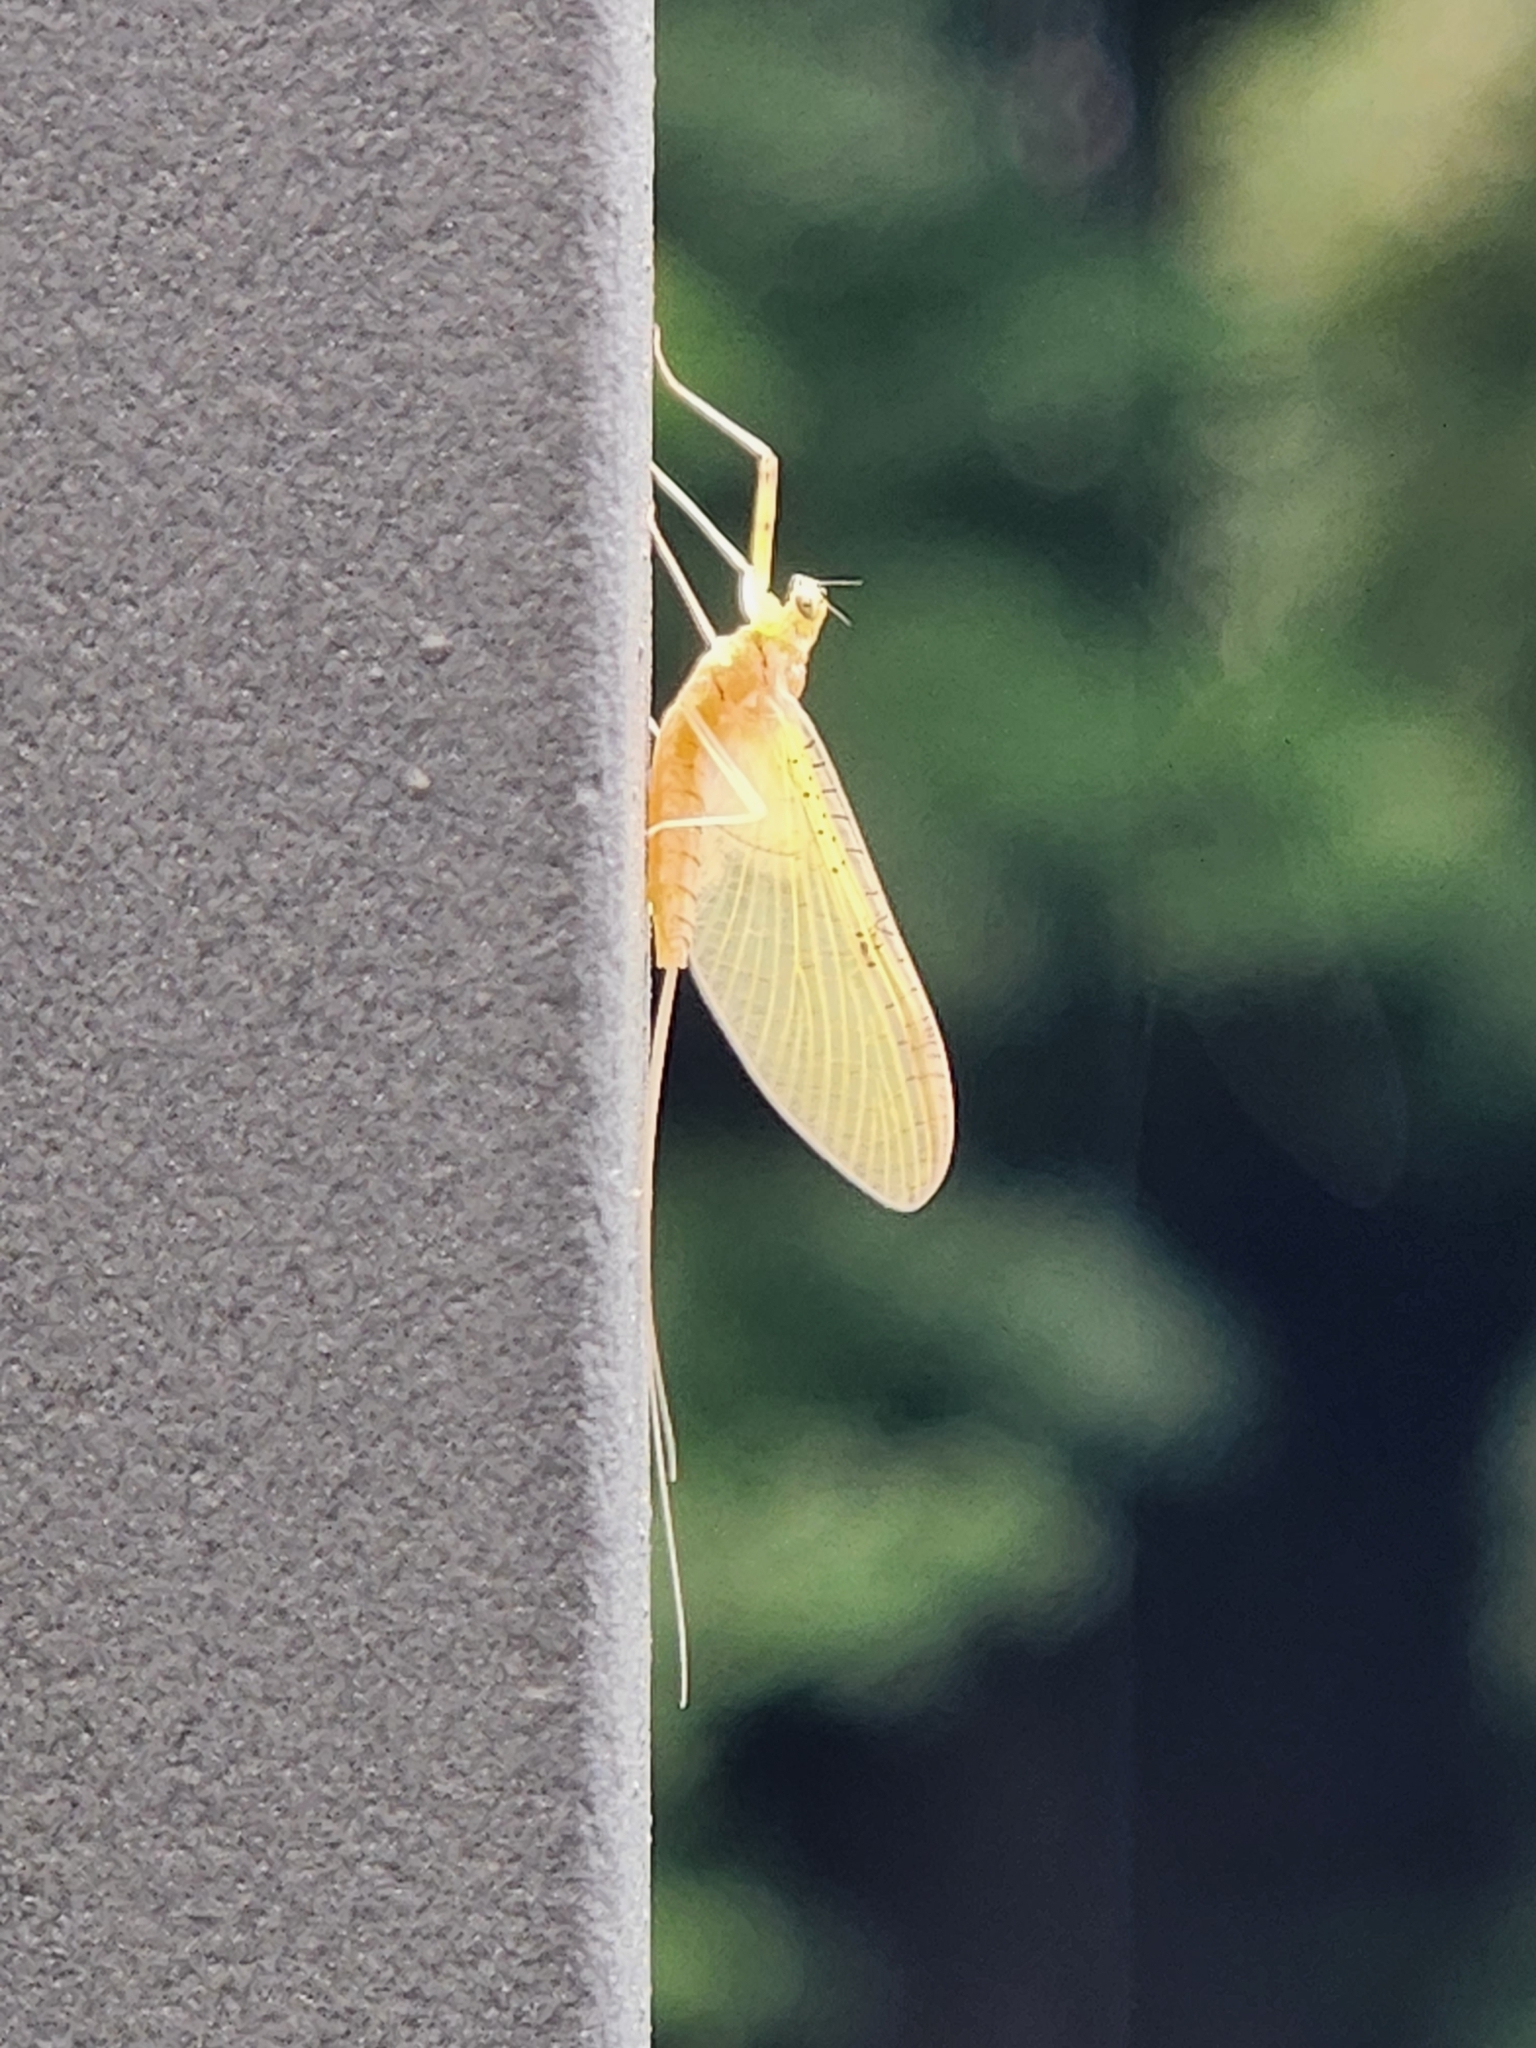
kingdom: Animalia
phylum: Arthropoda
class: Insecta
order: Ephemeroptera
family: Heptageniidae
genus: Stenacron
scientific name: Stenacron interpunctatum
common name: Orange cahill
